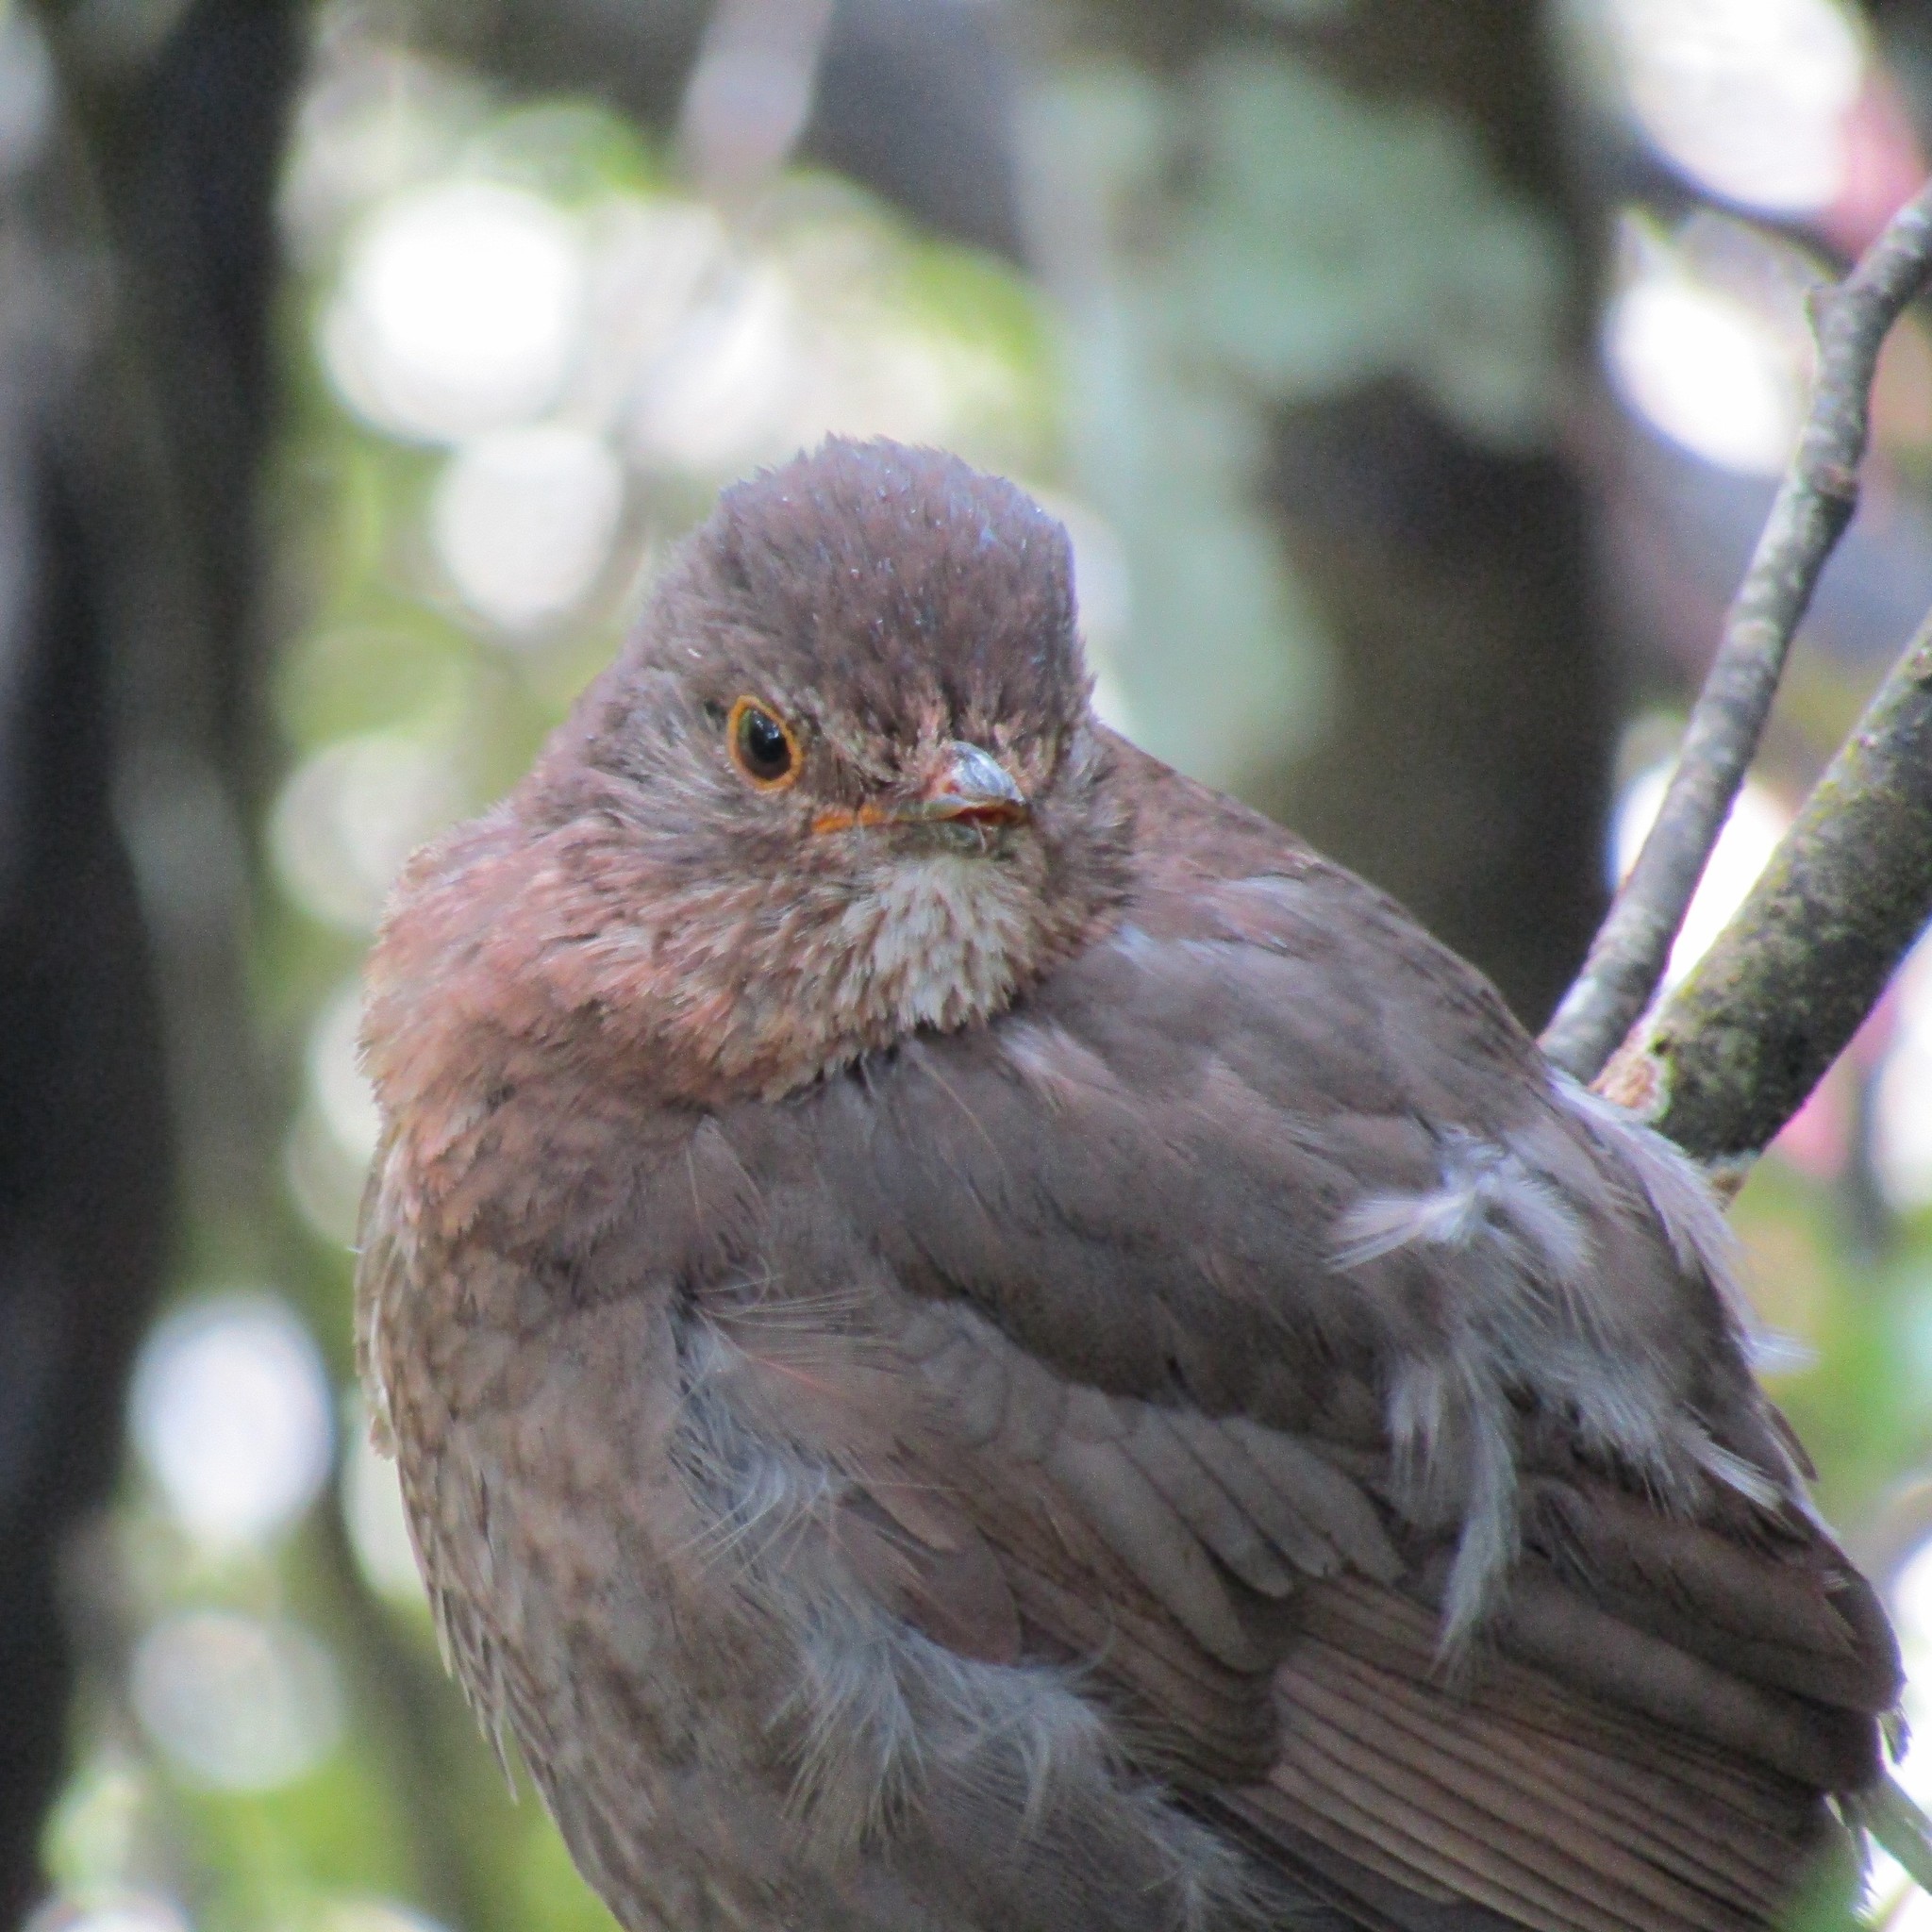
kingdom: Animalia
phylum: Chordata
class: Aves
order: Passeriformes
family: Turdidae
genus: Turdus
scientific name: Turdus merula
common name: Common blackbird
